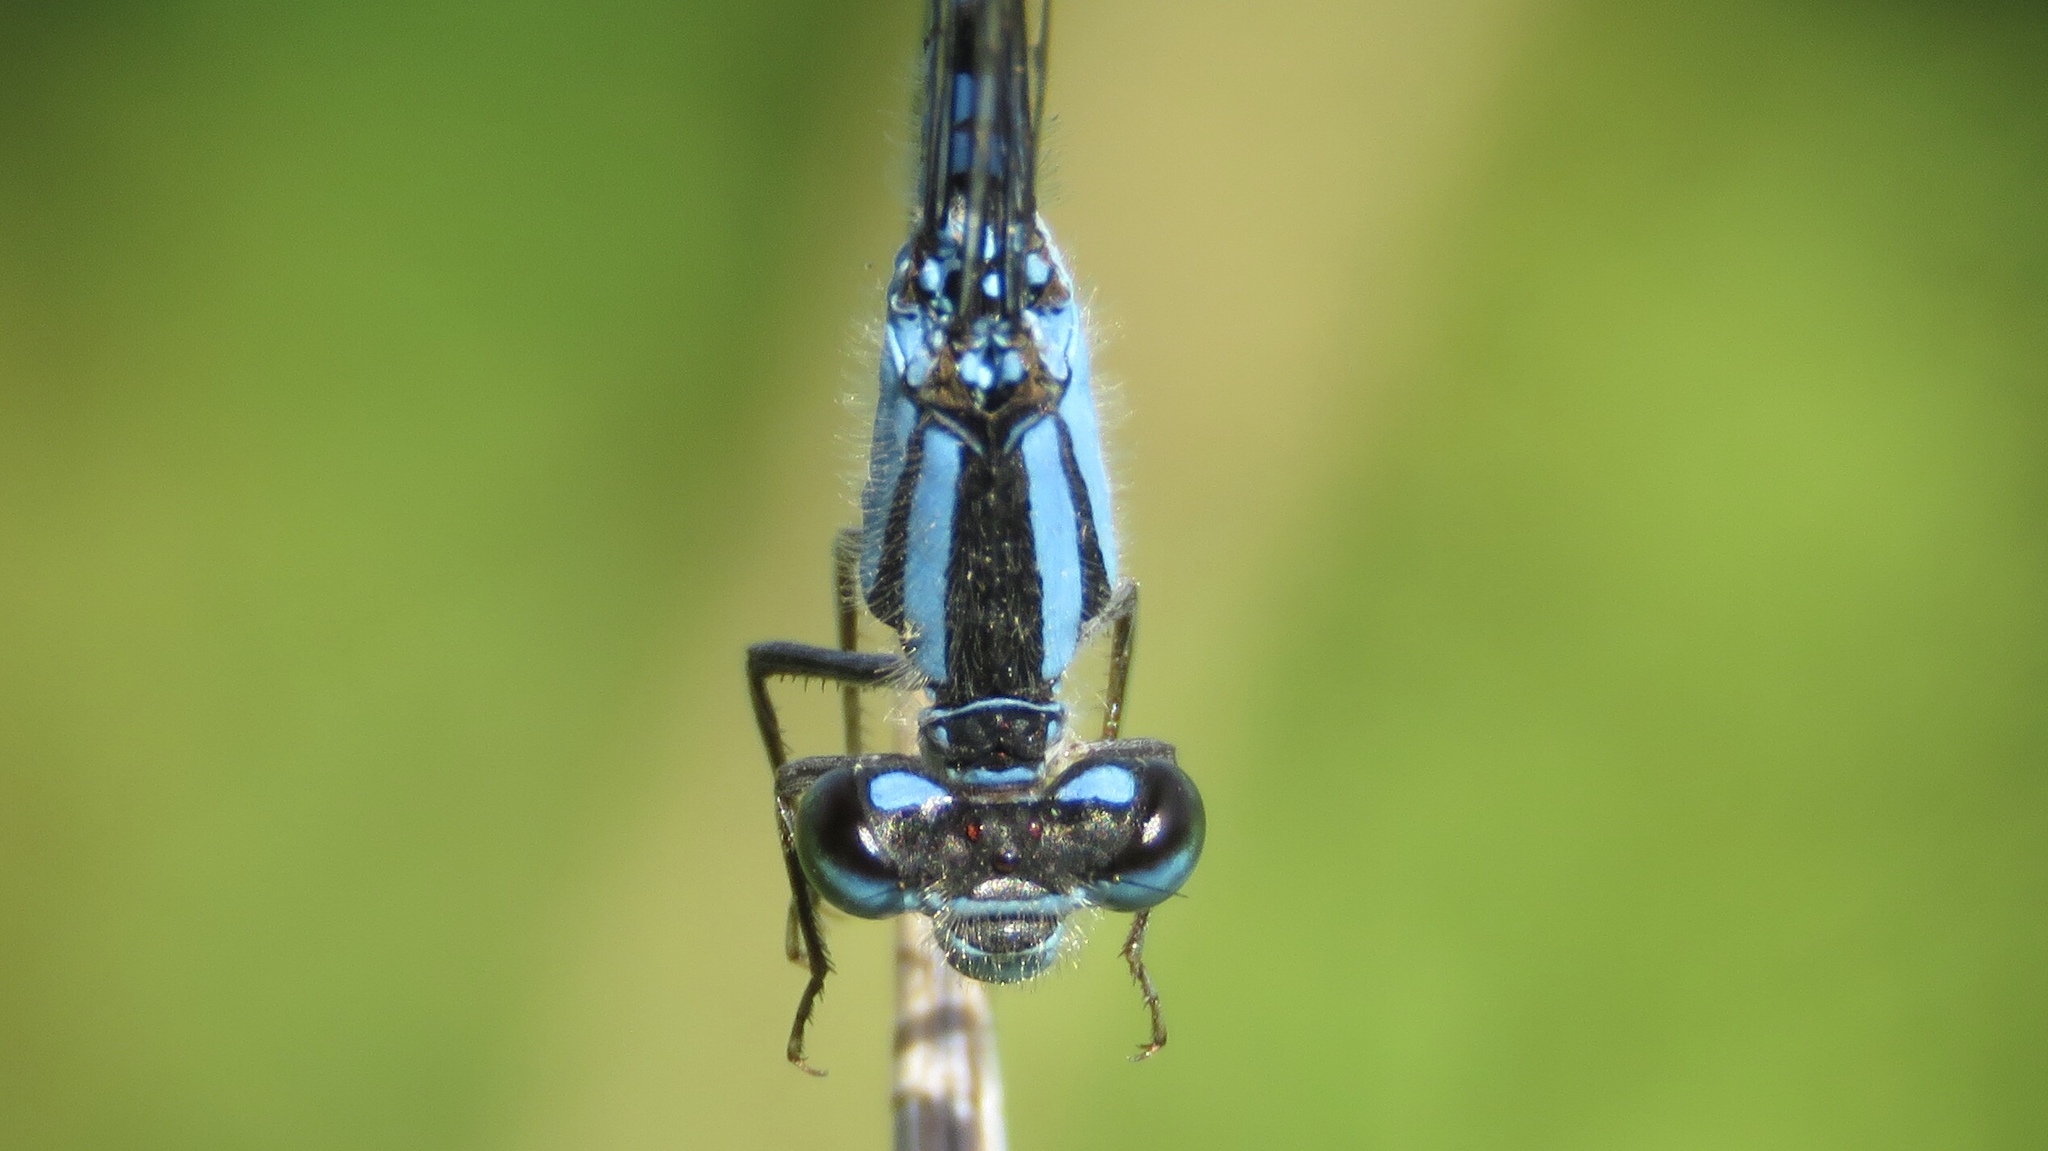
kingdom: Animalia
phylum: Arthropoda
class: Insecta
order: Odonata
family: Coenagrionidae
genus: Enallagma
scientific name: Enallagma carunculatum
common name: Tule bluet
